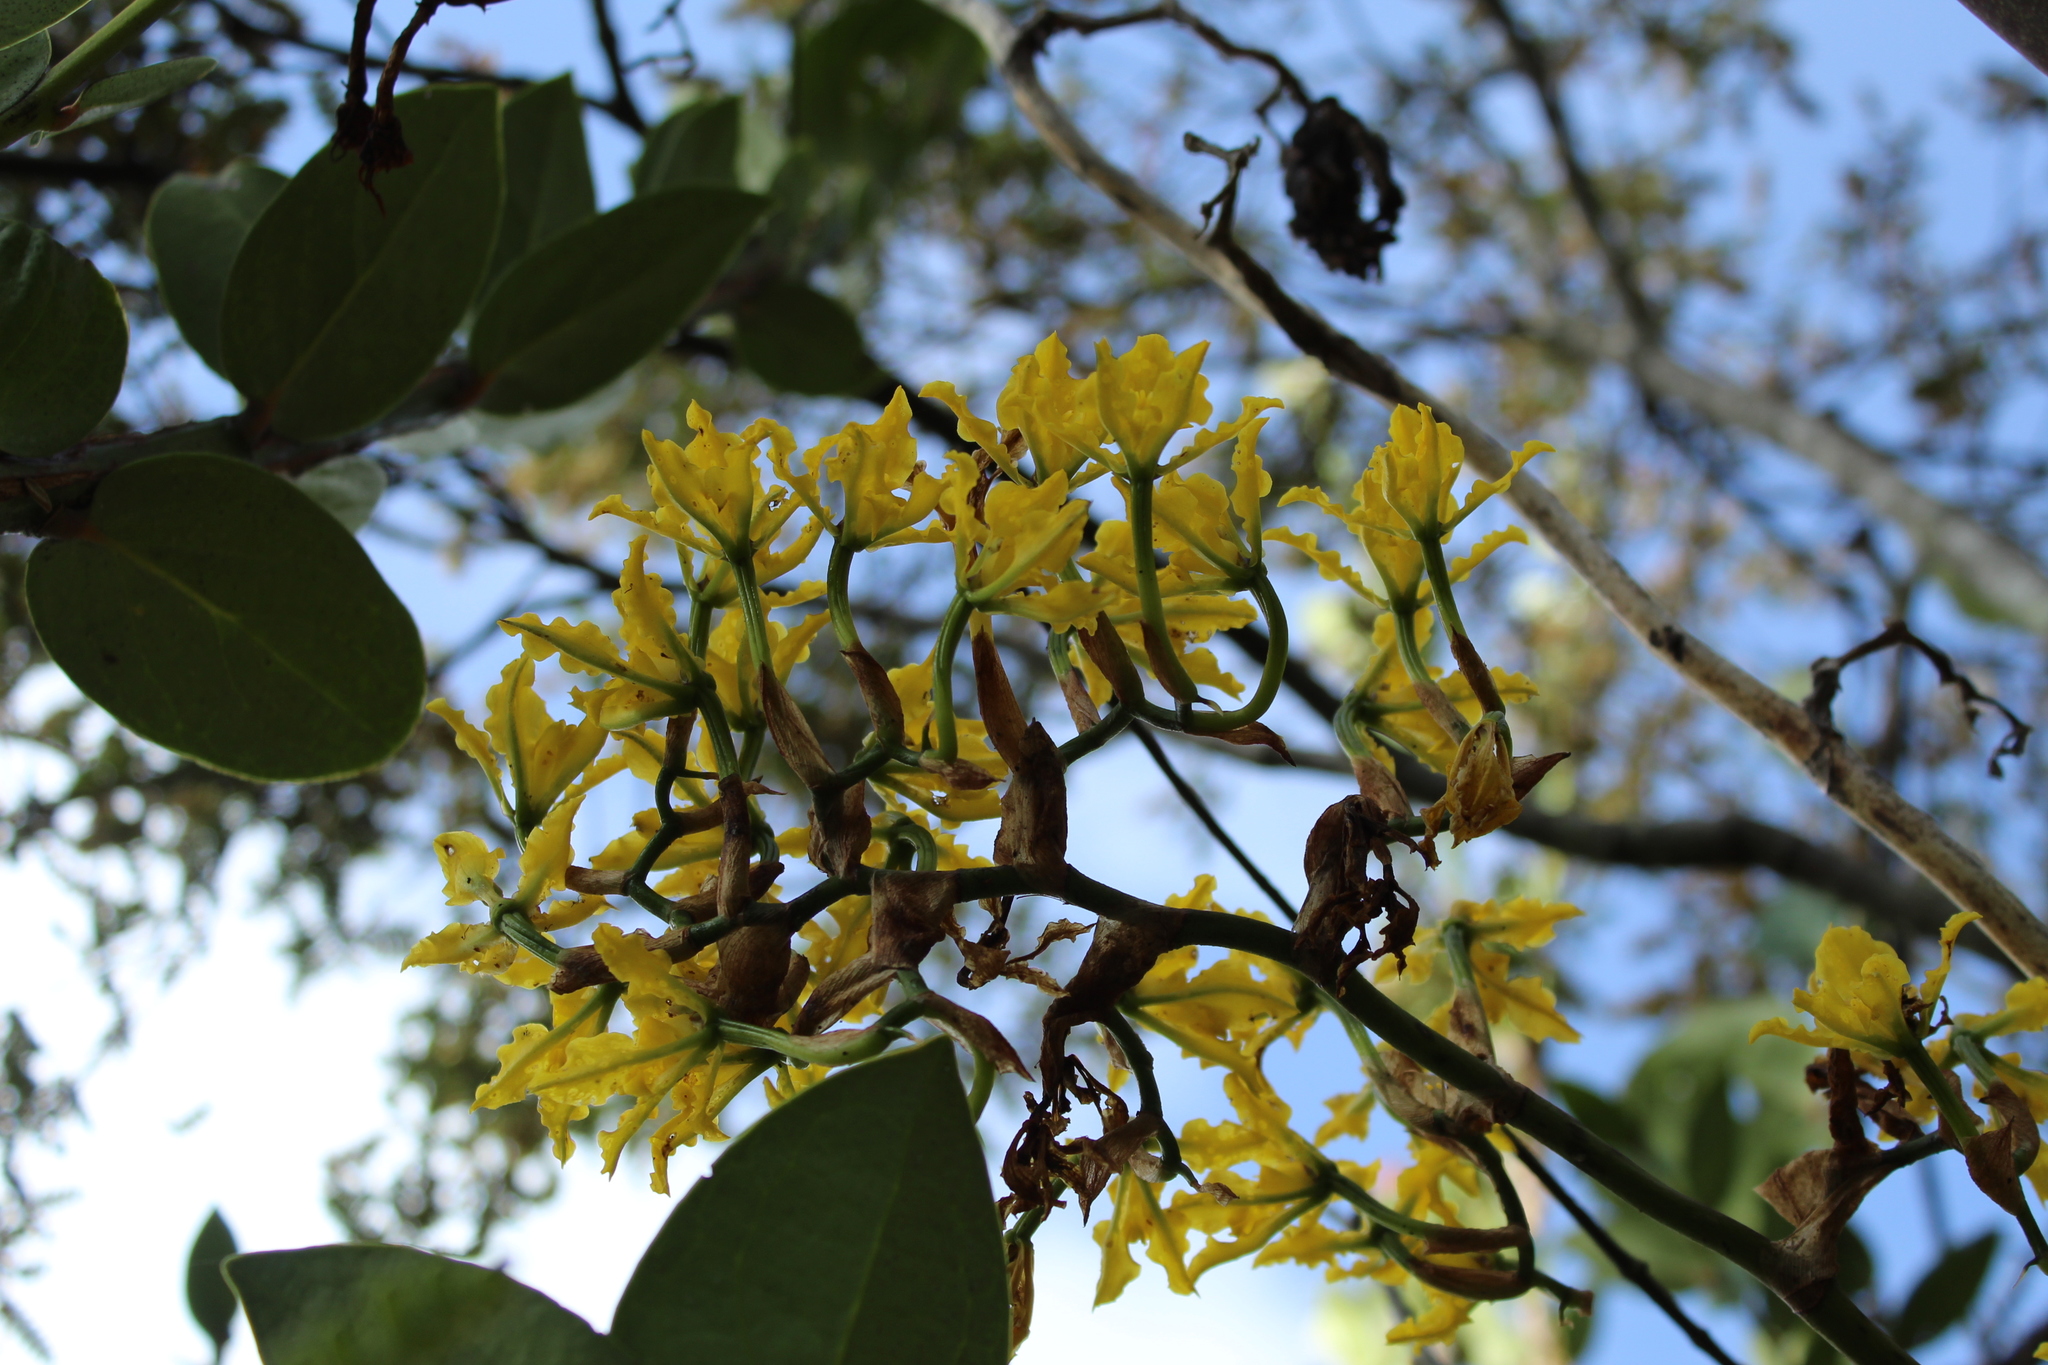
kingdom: Plantae
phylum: Tracheophyta
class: Liliopsida
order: Asparagales
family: Orchidaceae
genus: Cyrtochilum
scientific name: Cyrtochilum revolutum
